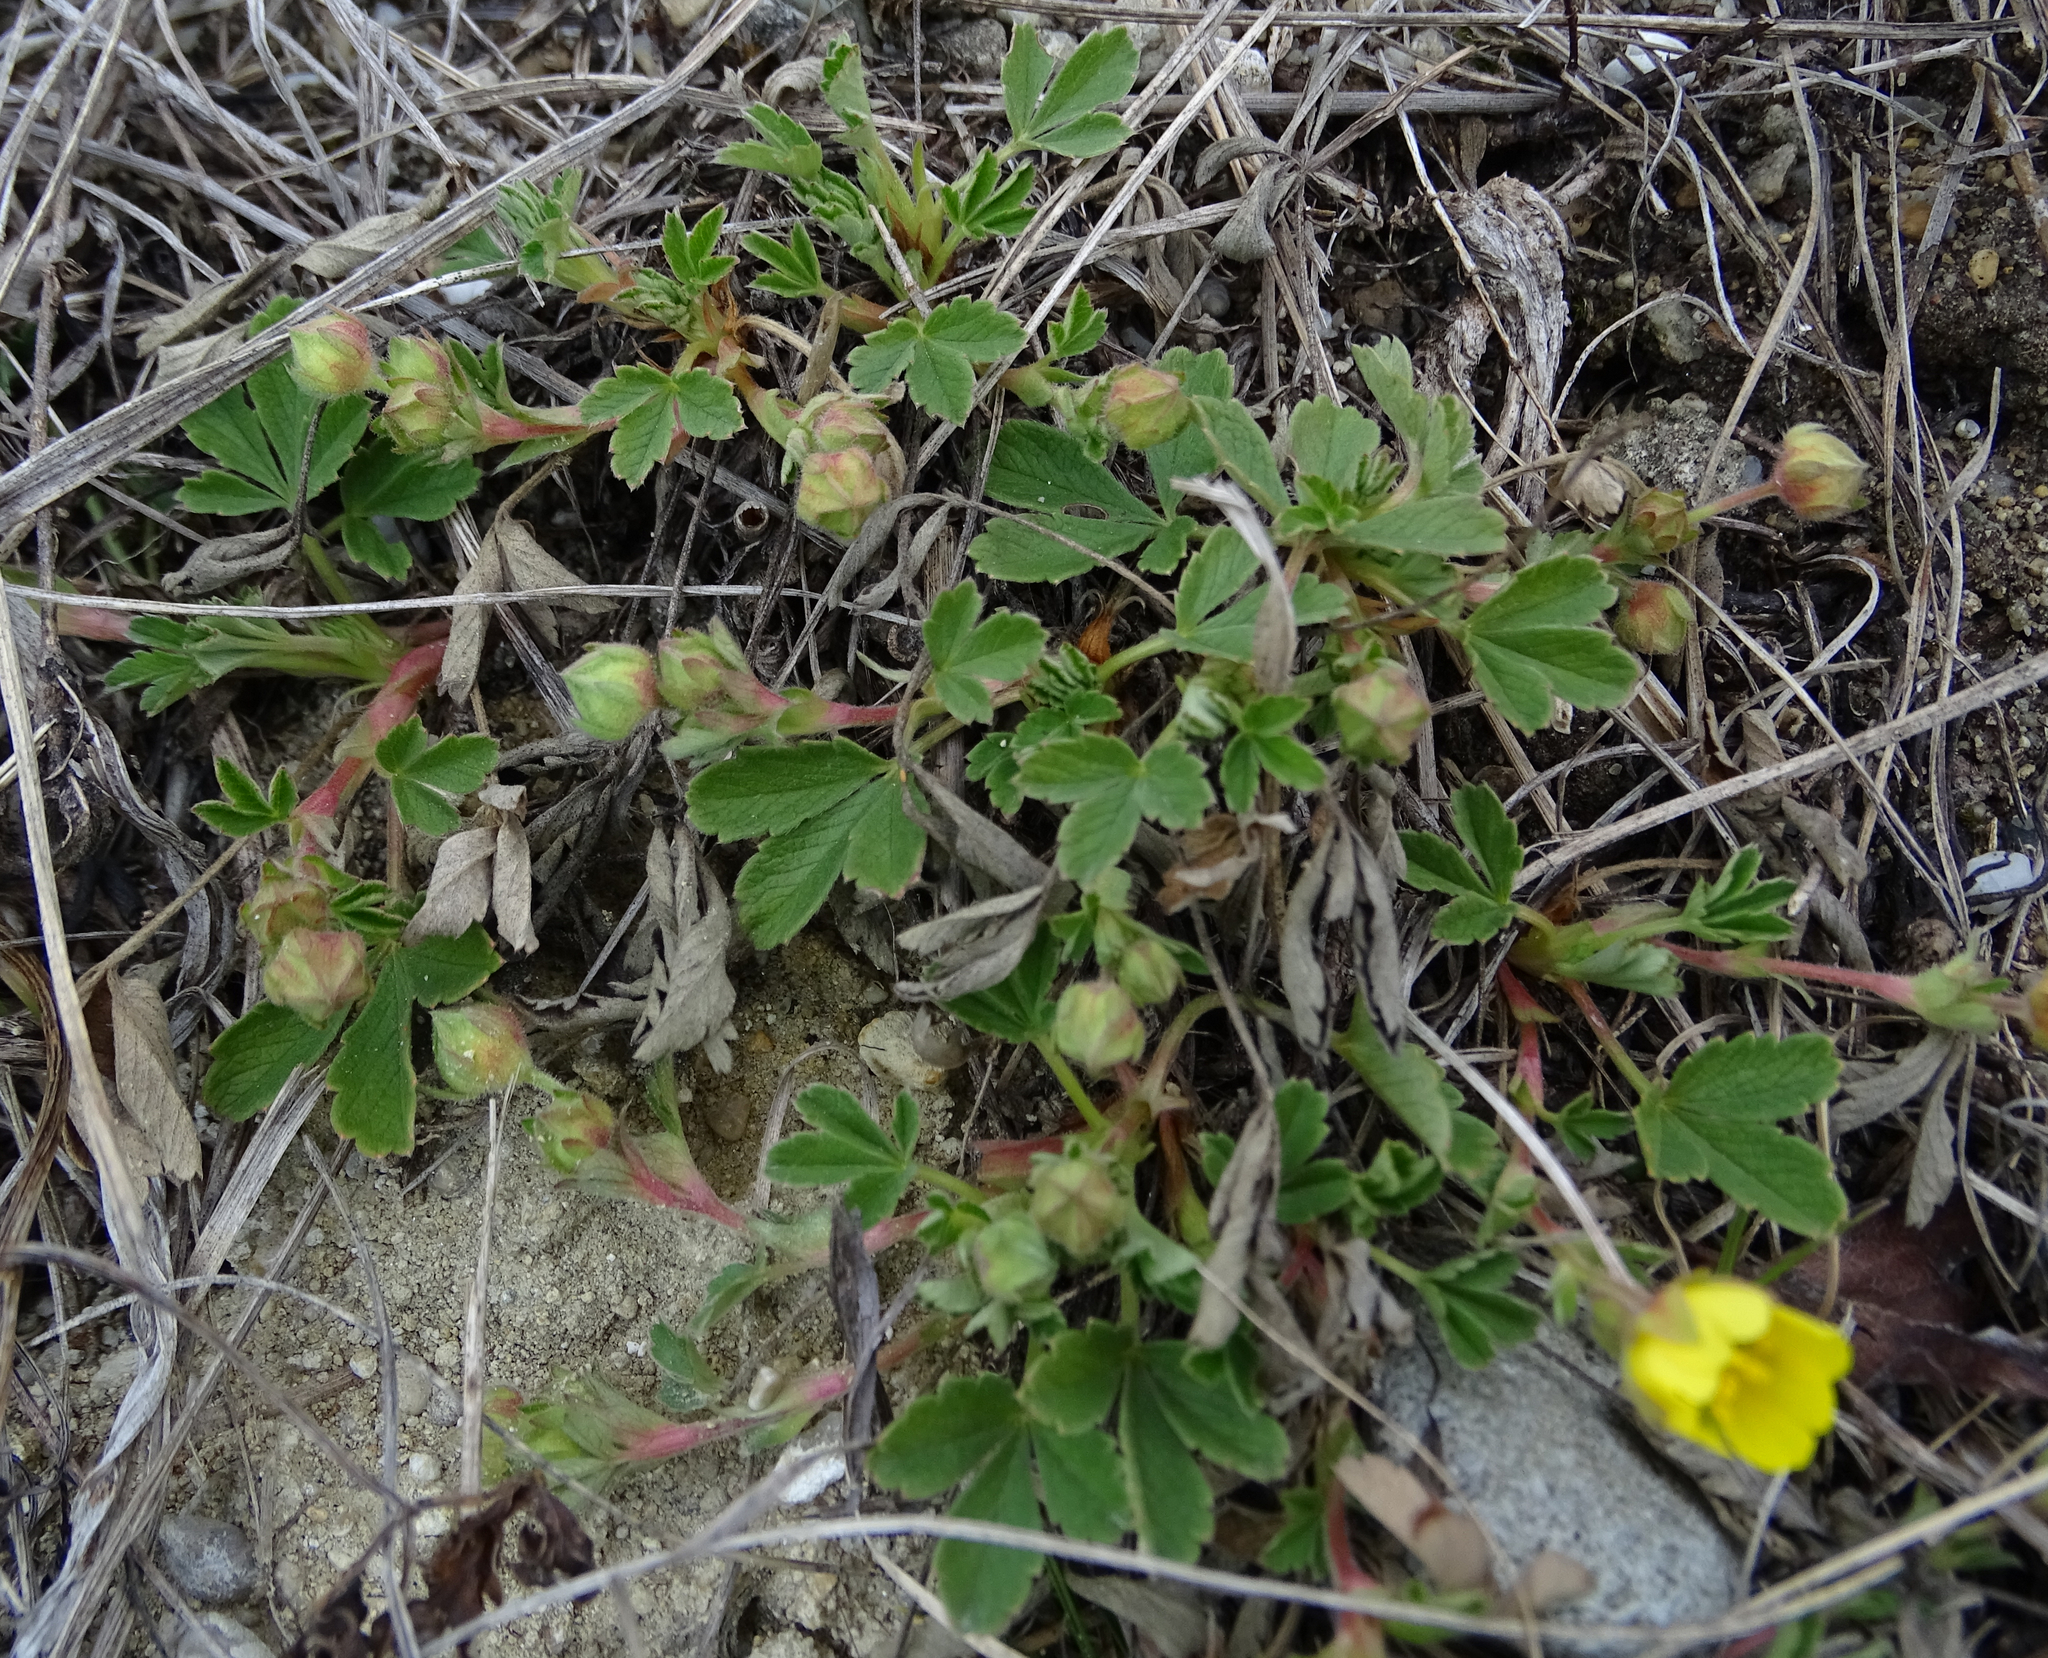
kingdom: Plantae
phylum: Tracheophyta
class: Magnoliopsida
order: Rosales
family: Rosaceae
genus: Potentilla
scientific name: Potentilla incana
